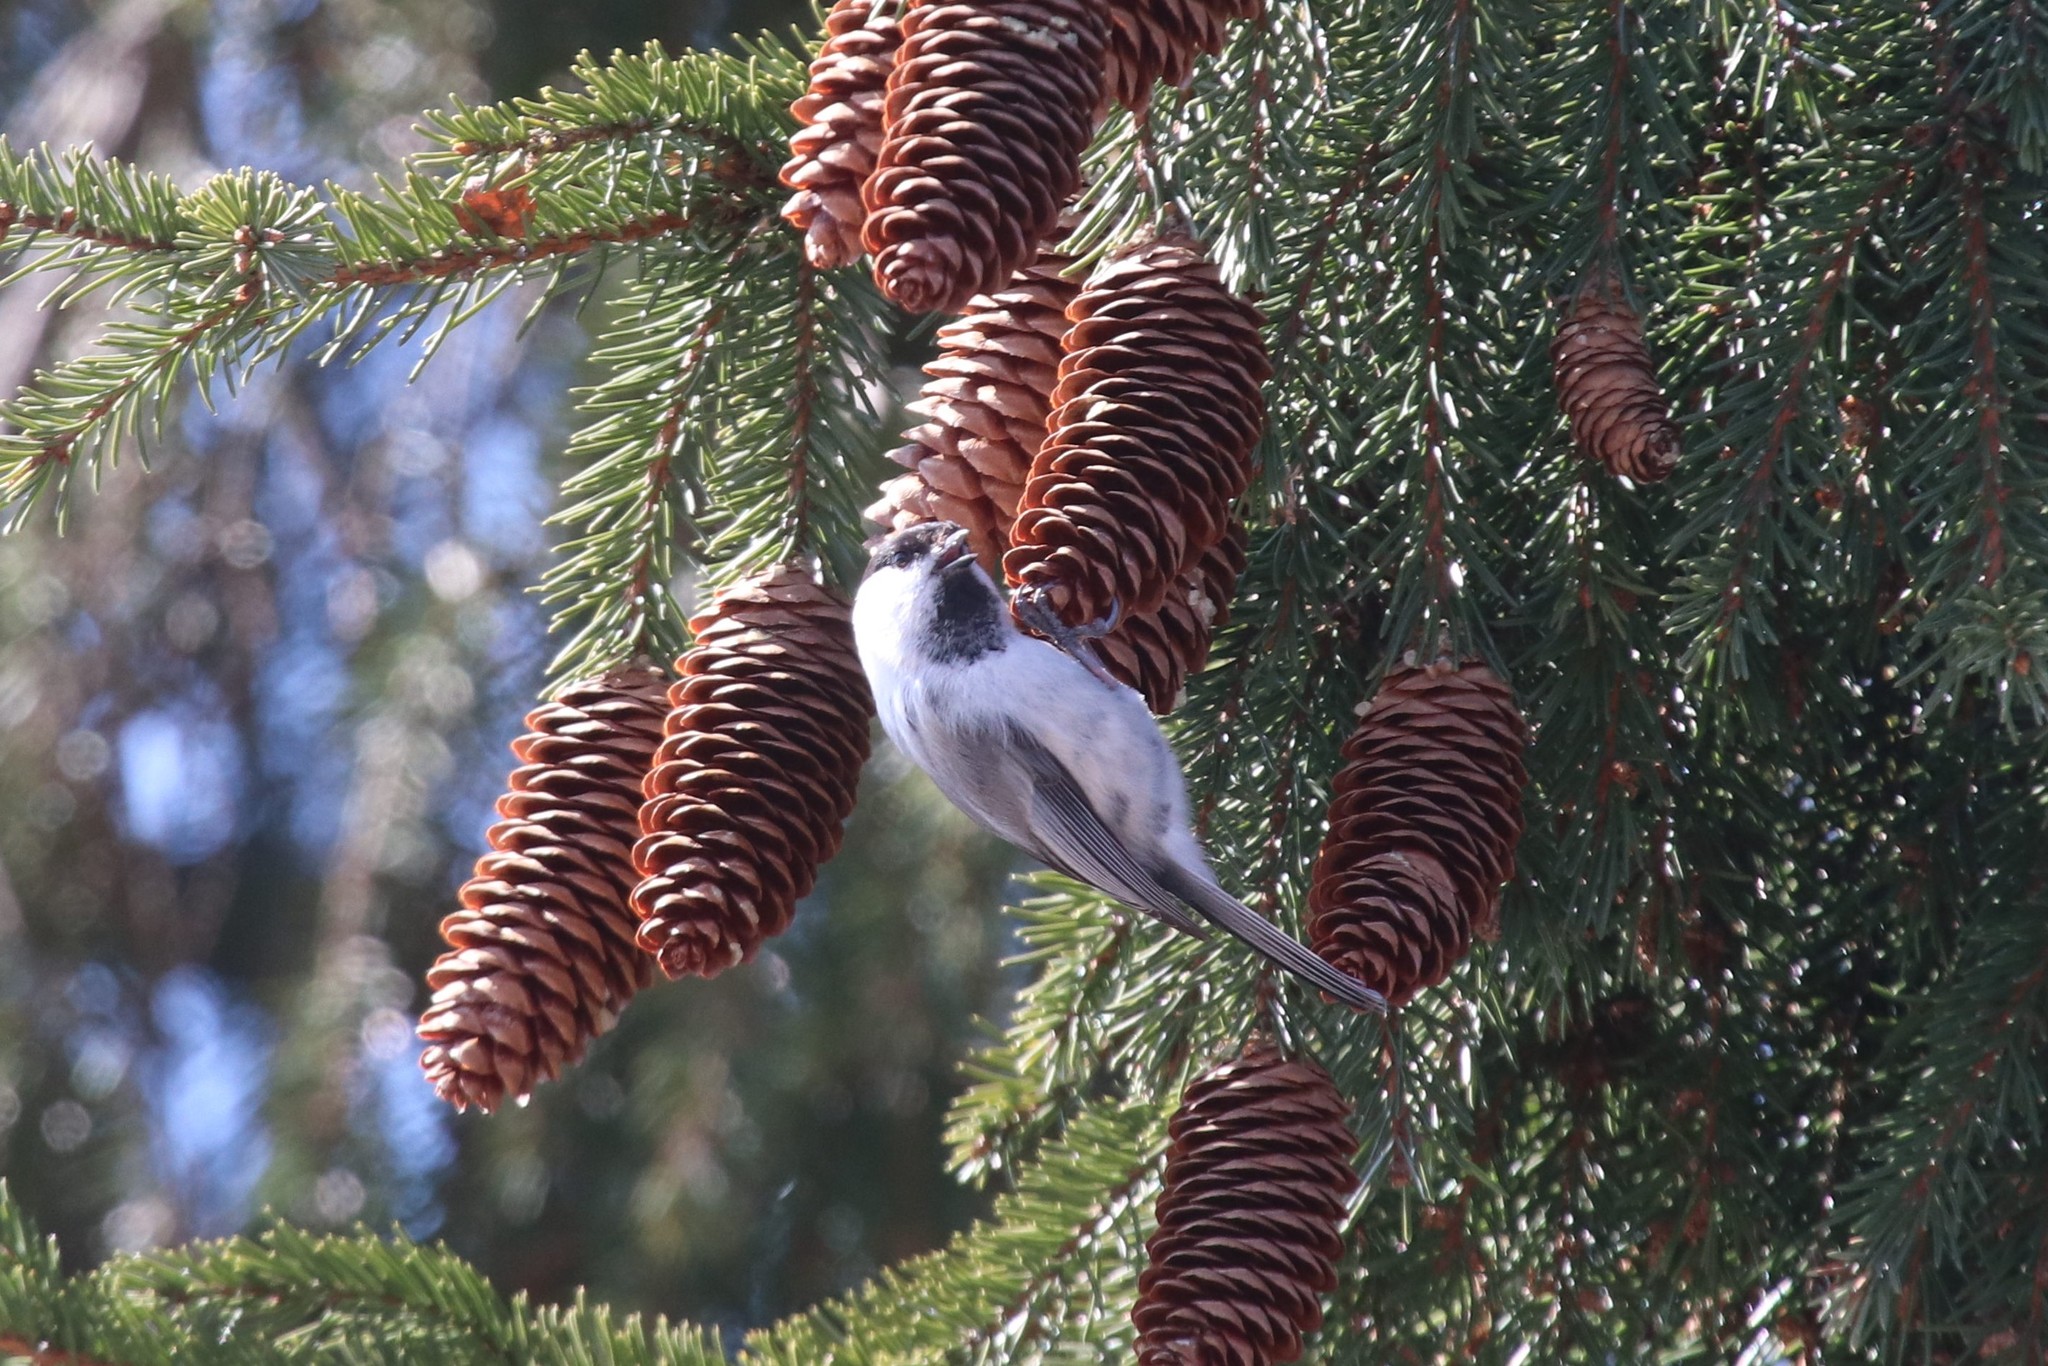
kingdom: Animalia
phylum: Chordata
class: Aves
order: Passeriformes
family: Paridae
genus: Poecile
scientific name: Poecile montanus
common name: Willow tit
